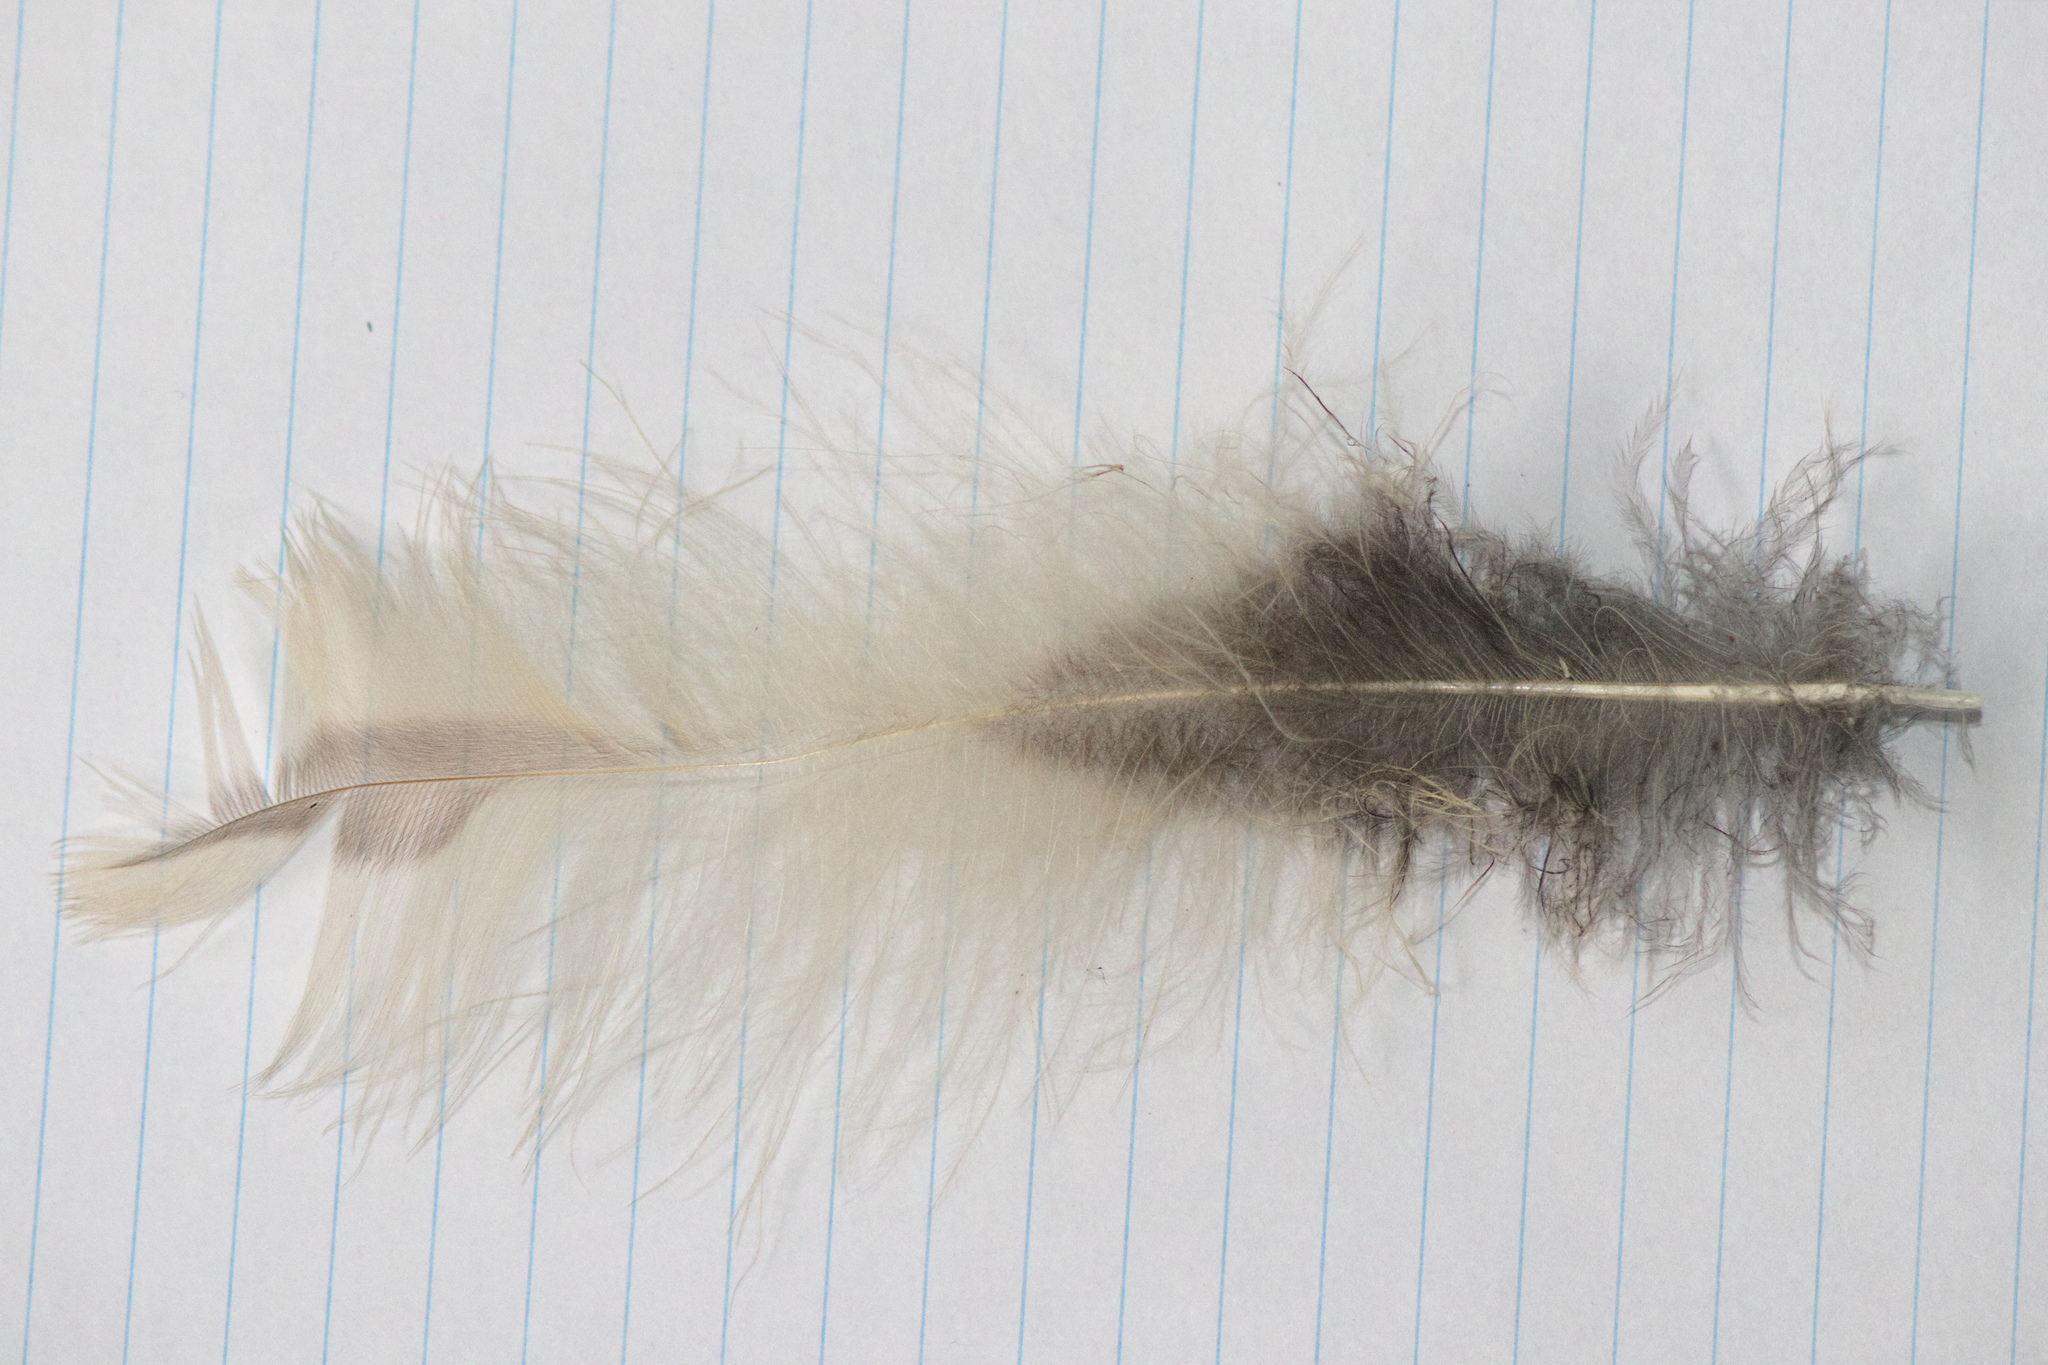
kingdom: Animalia
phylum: Chordata
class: Aves
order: Strigiformes
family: Strigidae
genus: Strix
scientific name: Strix varia
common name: Barred owl
